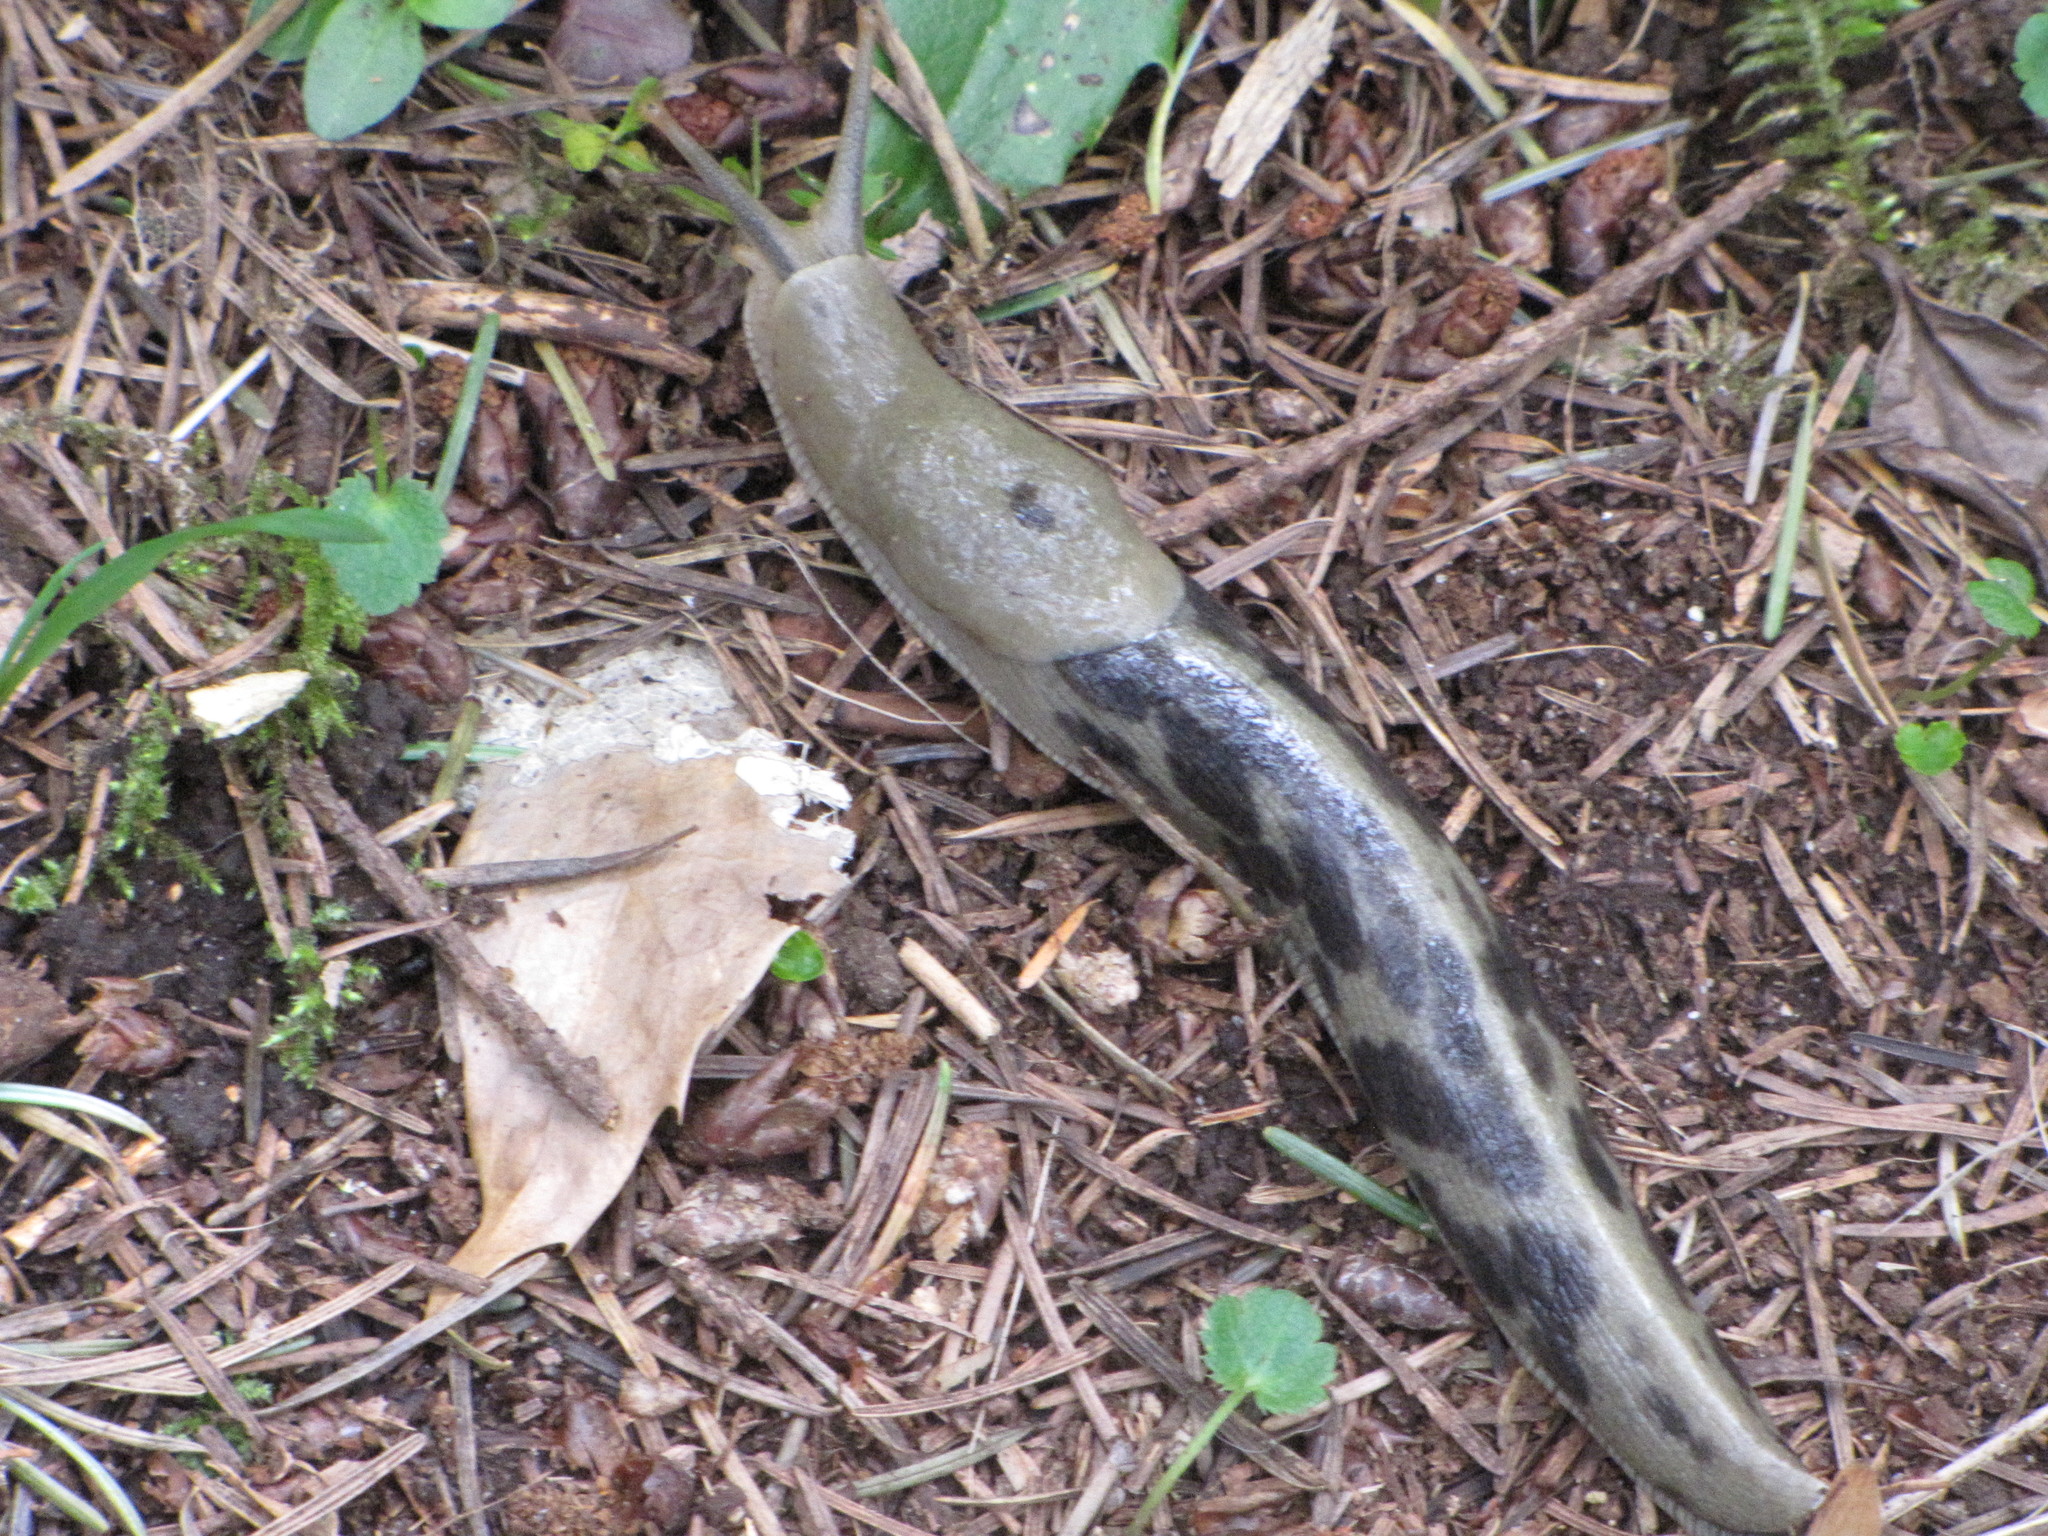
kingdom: Animalia
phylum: Mollusca
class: Gastropoda
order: Stylommatophora
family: Ariolimacidae
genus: Ariolimax
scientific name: Ariolimax columbianus
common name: Pacific banana slug
